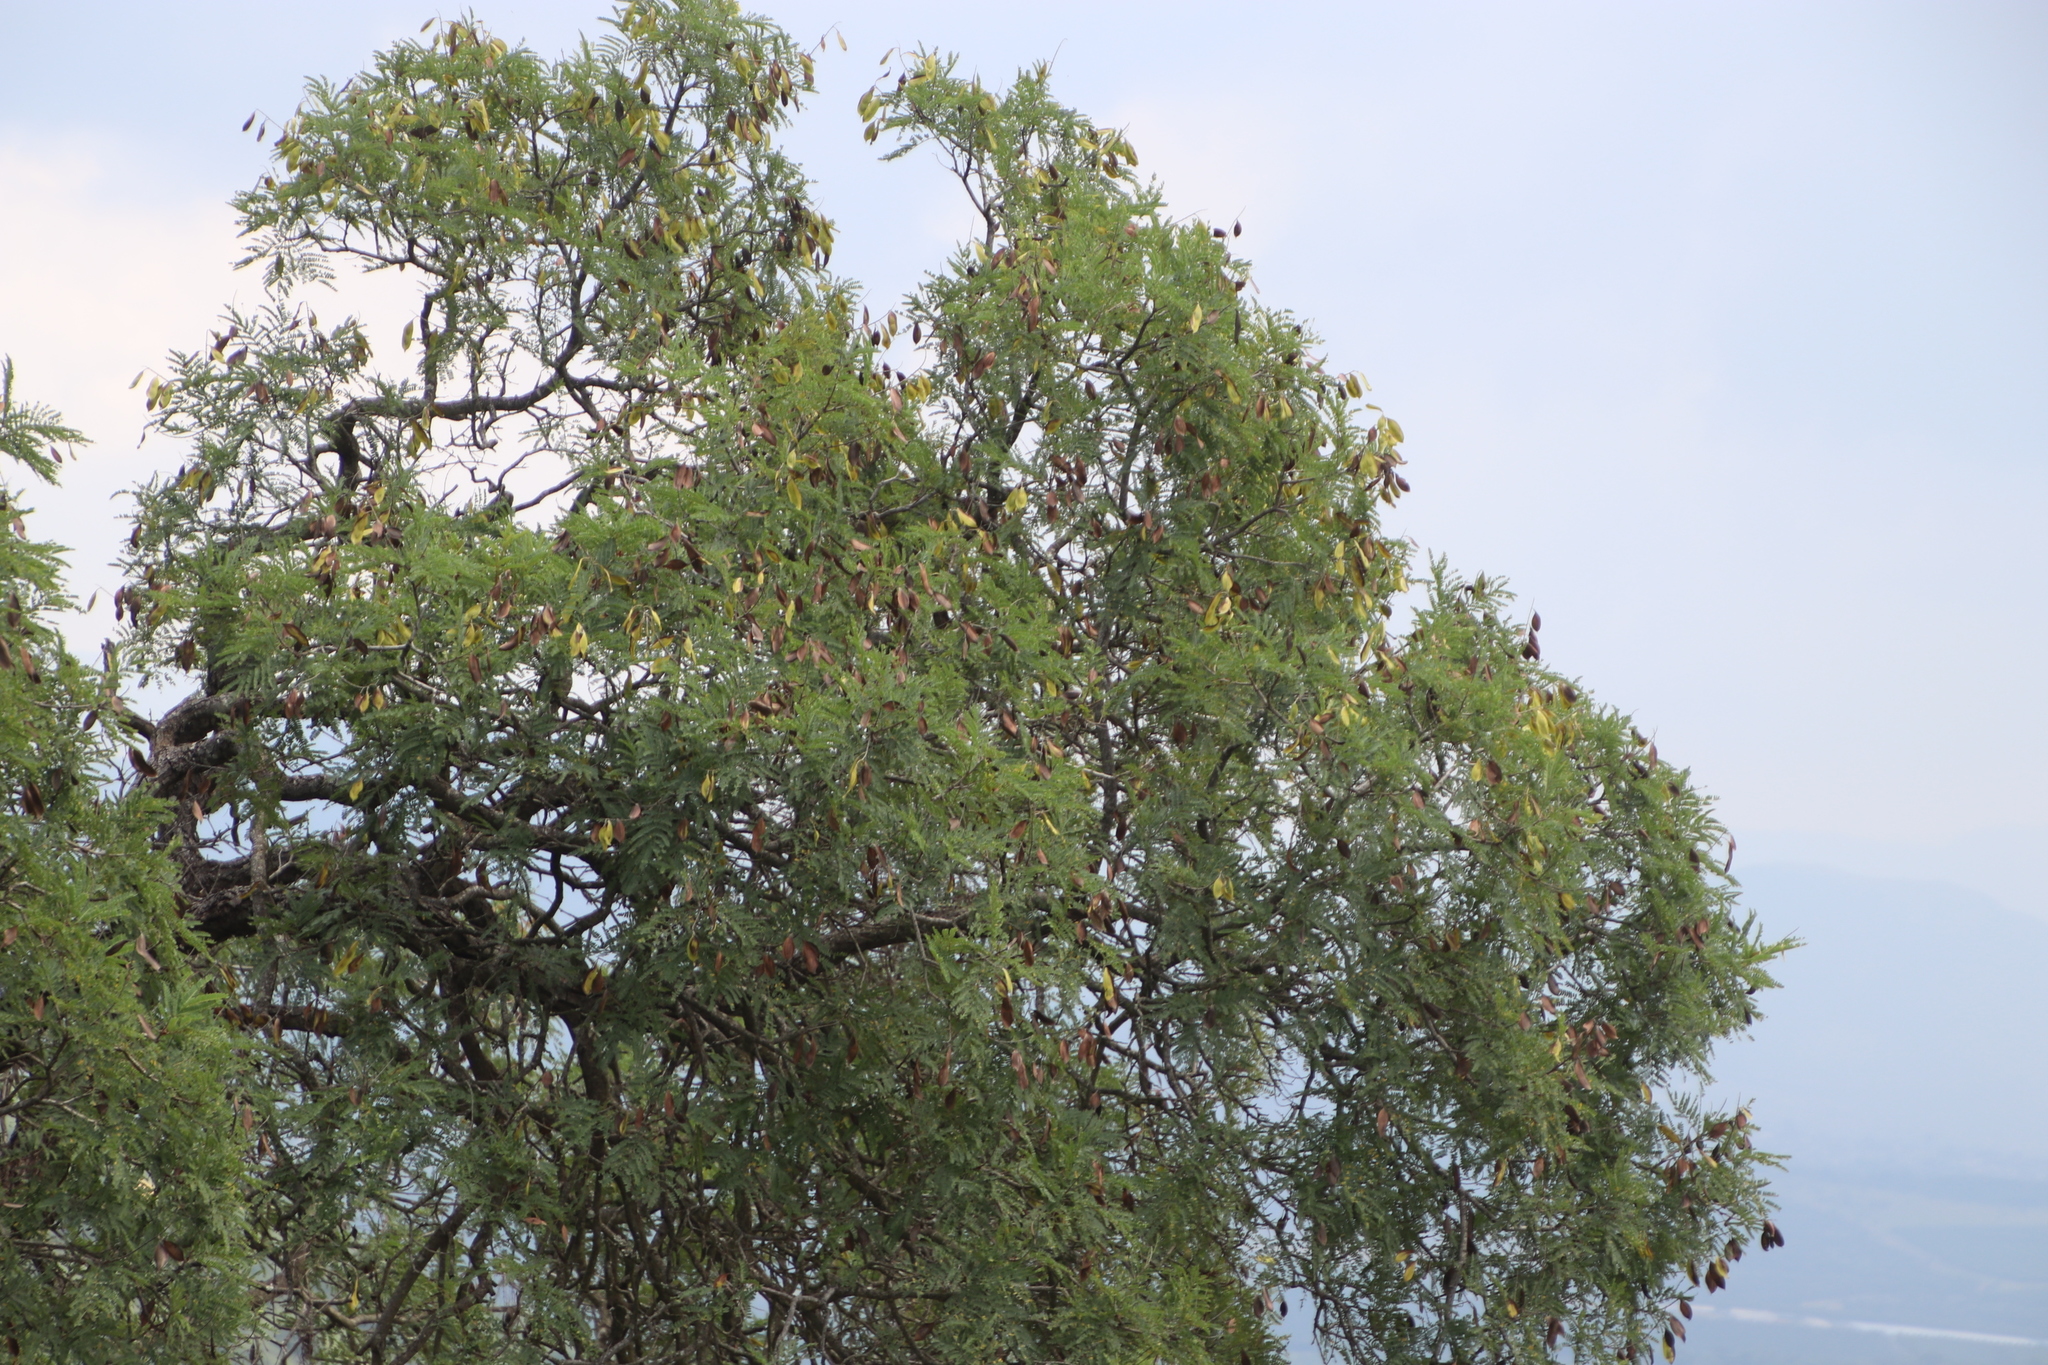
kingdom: Plantae
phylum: Tracheophyta
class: Magnoliopsida
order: Fabales
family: Fabaceae
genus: Peltophorum
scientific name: Peltophorum africanum
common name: African black wattle
